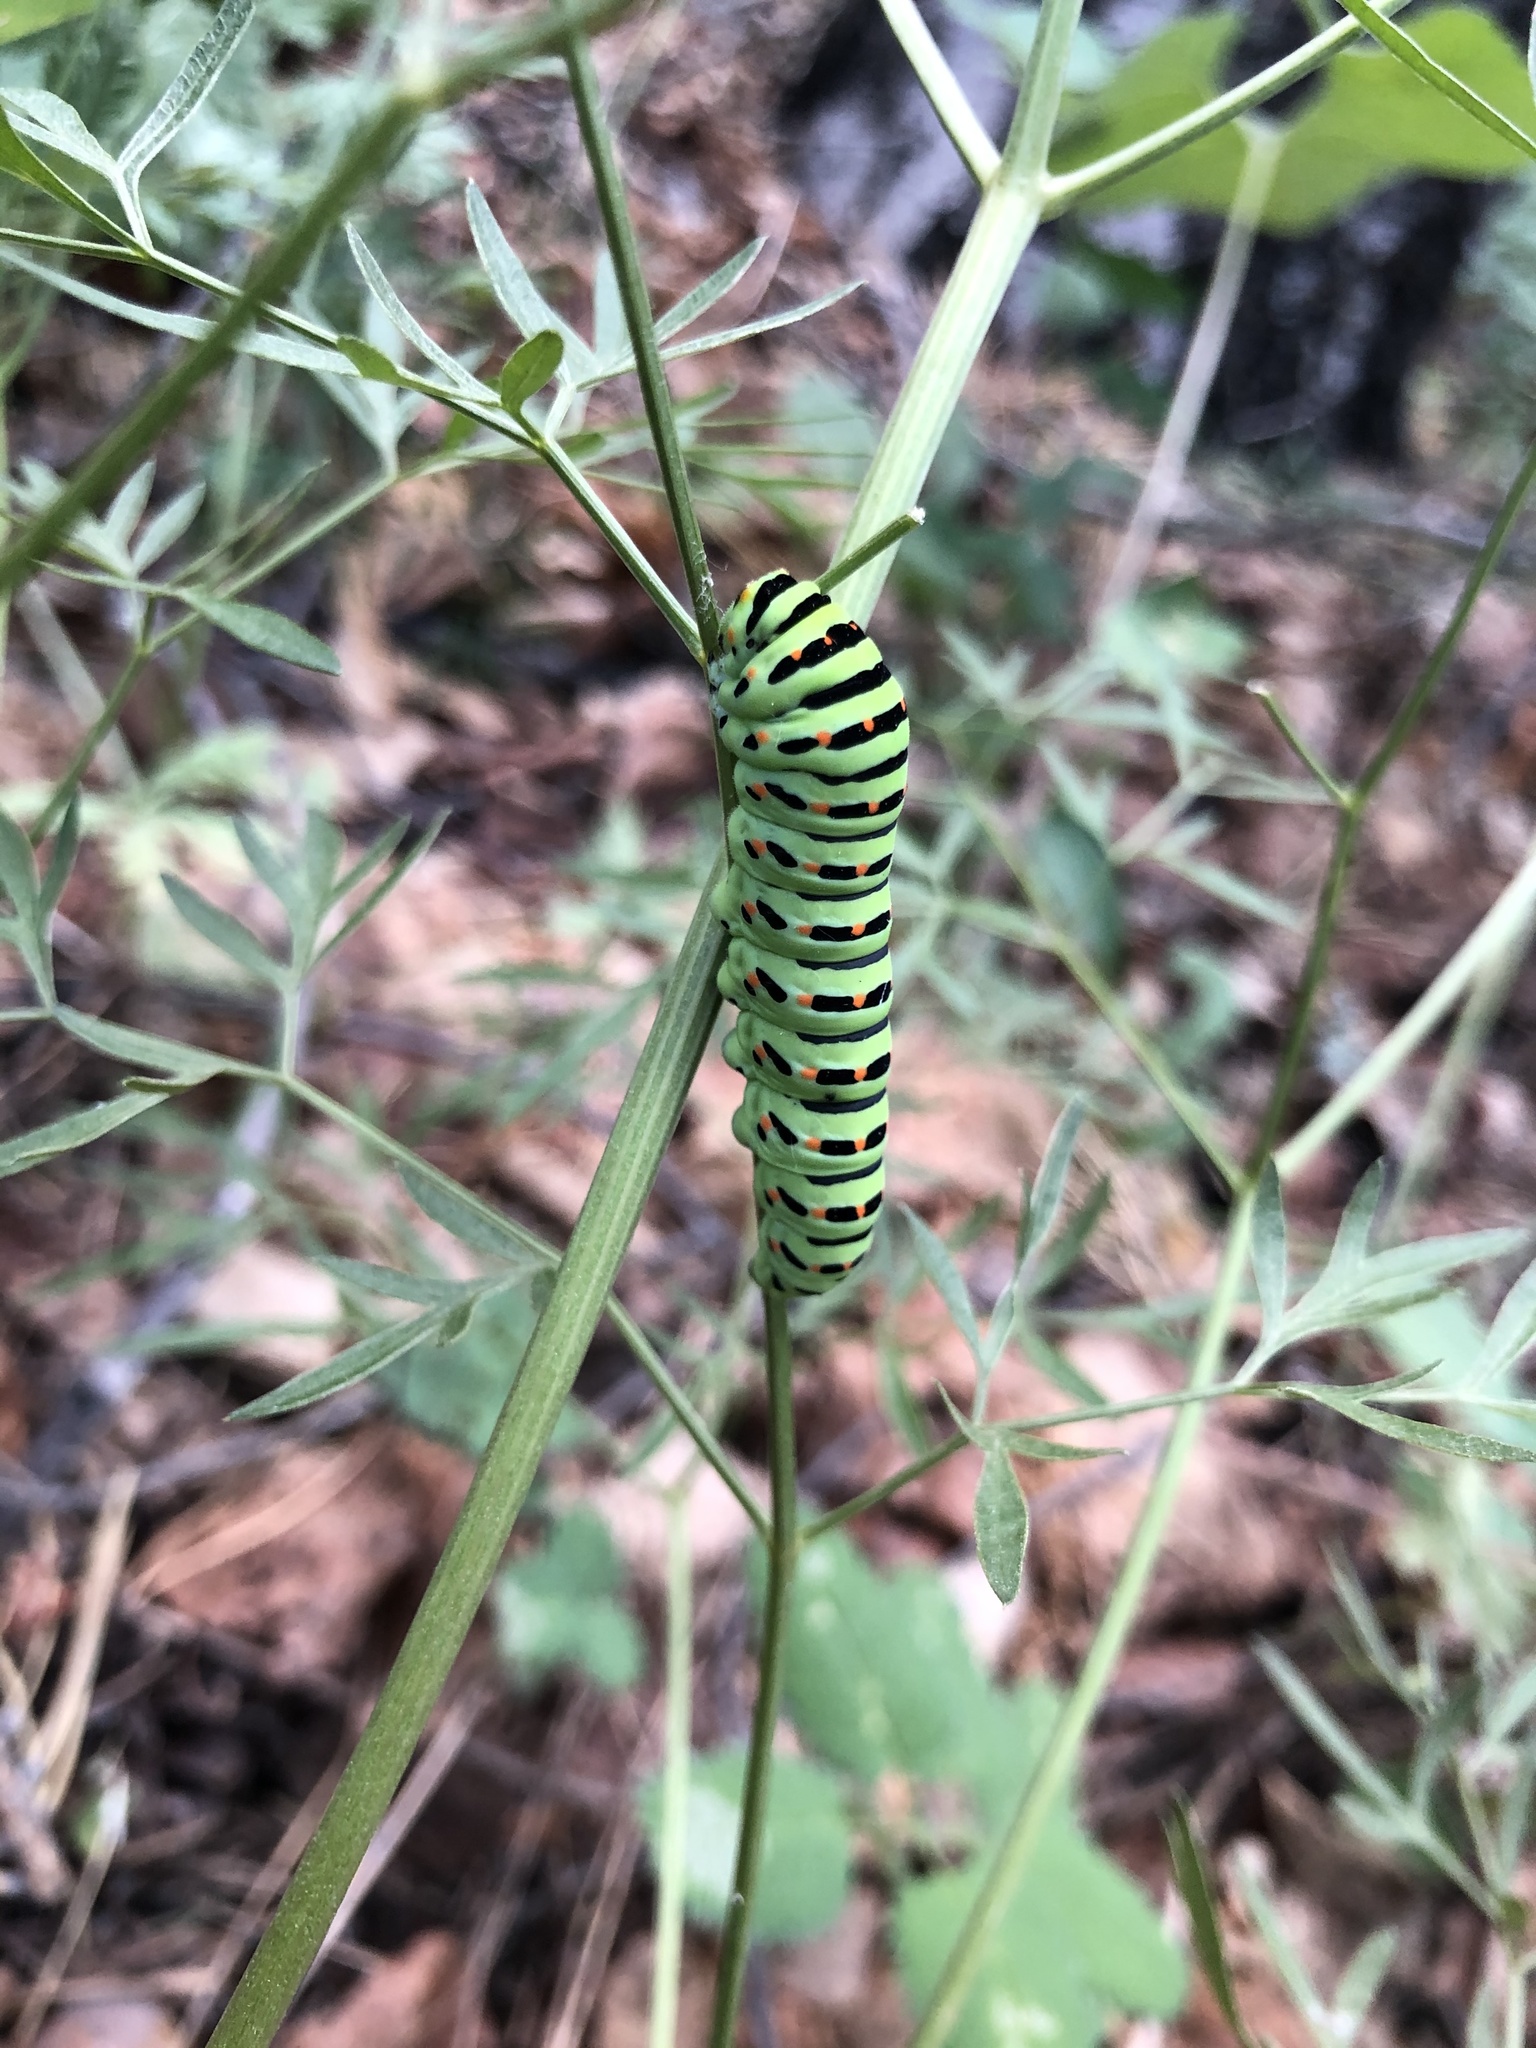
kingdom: Animalia
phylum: Arthropoda
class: Insecta
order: Lepidoptera
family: Papilionidae
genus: Papilio
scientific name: Papilio machaon
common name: Swallowtail
